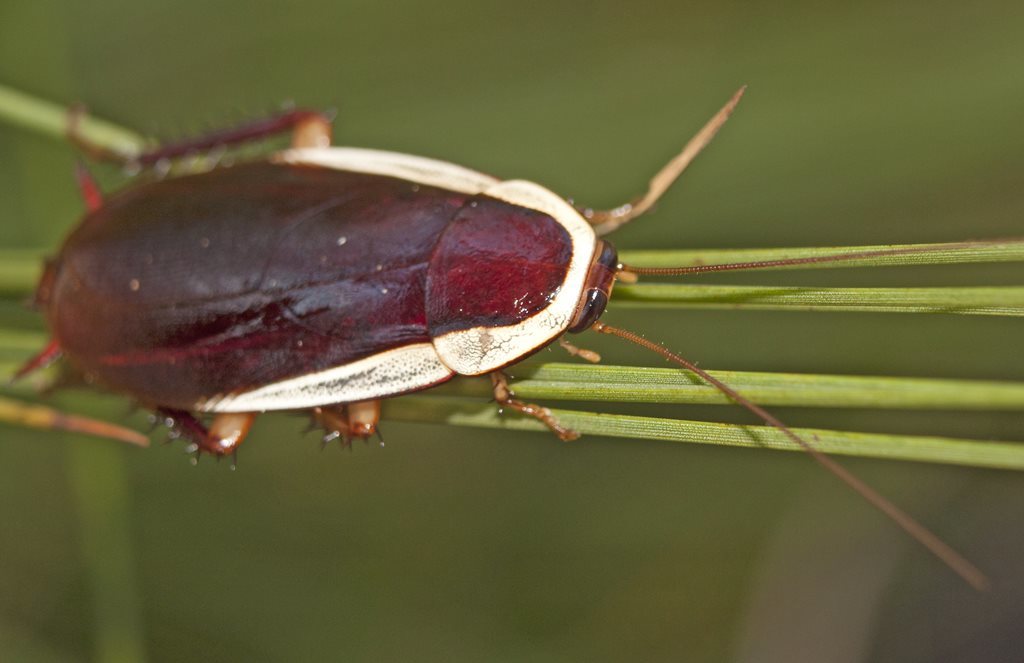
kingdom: Animalia
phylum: Arthropoda
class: Insecta
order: Blattodea
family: Blattidae
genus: Methana
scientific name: Methana caneae
